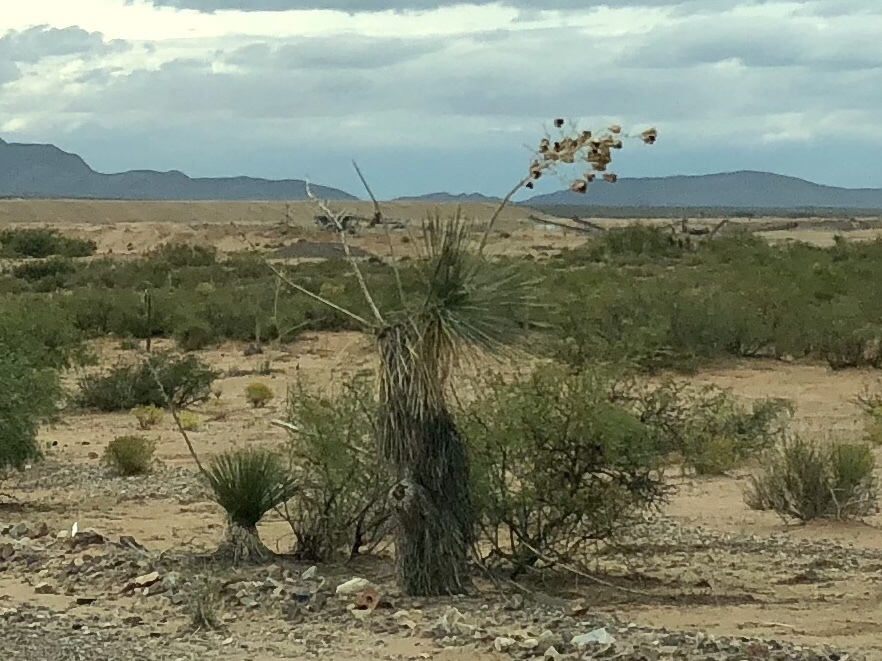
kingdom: Plantae
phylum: Tracheophyta
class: Liliopsida
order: Asparagales
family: Asparagaceae
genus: Yucca
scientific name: Yucca elata
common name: Palmella
